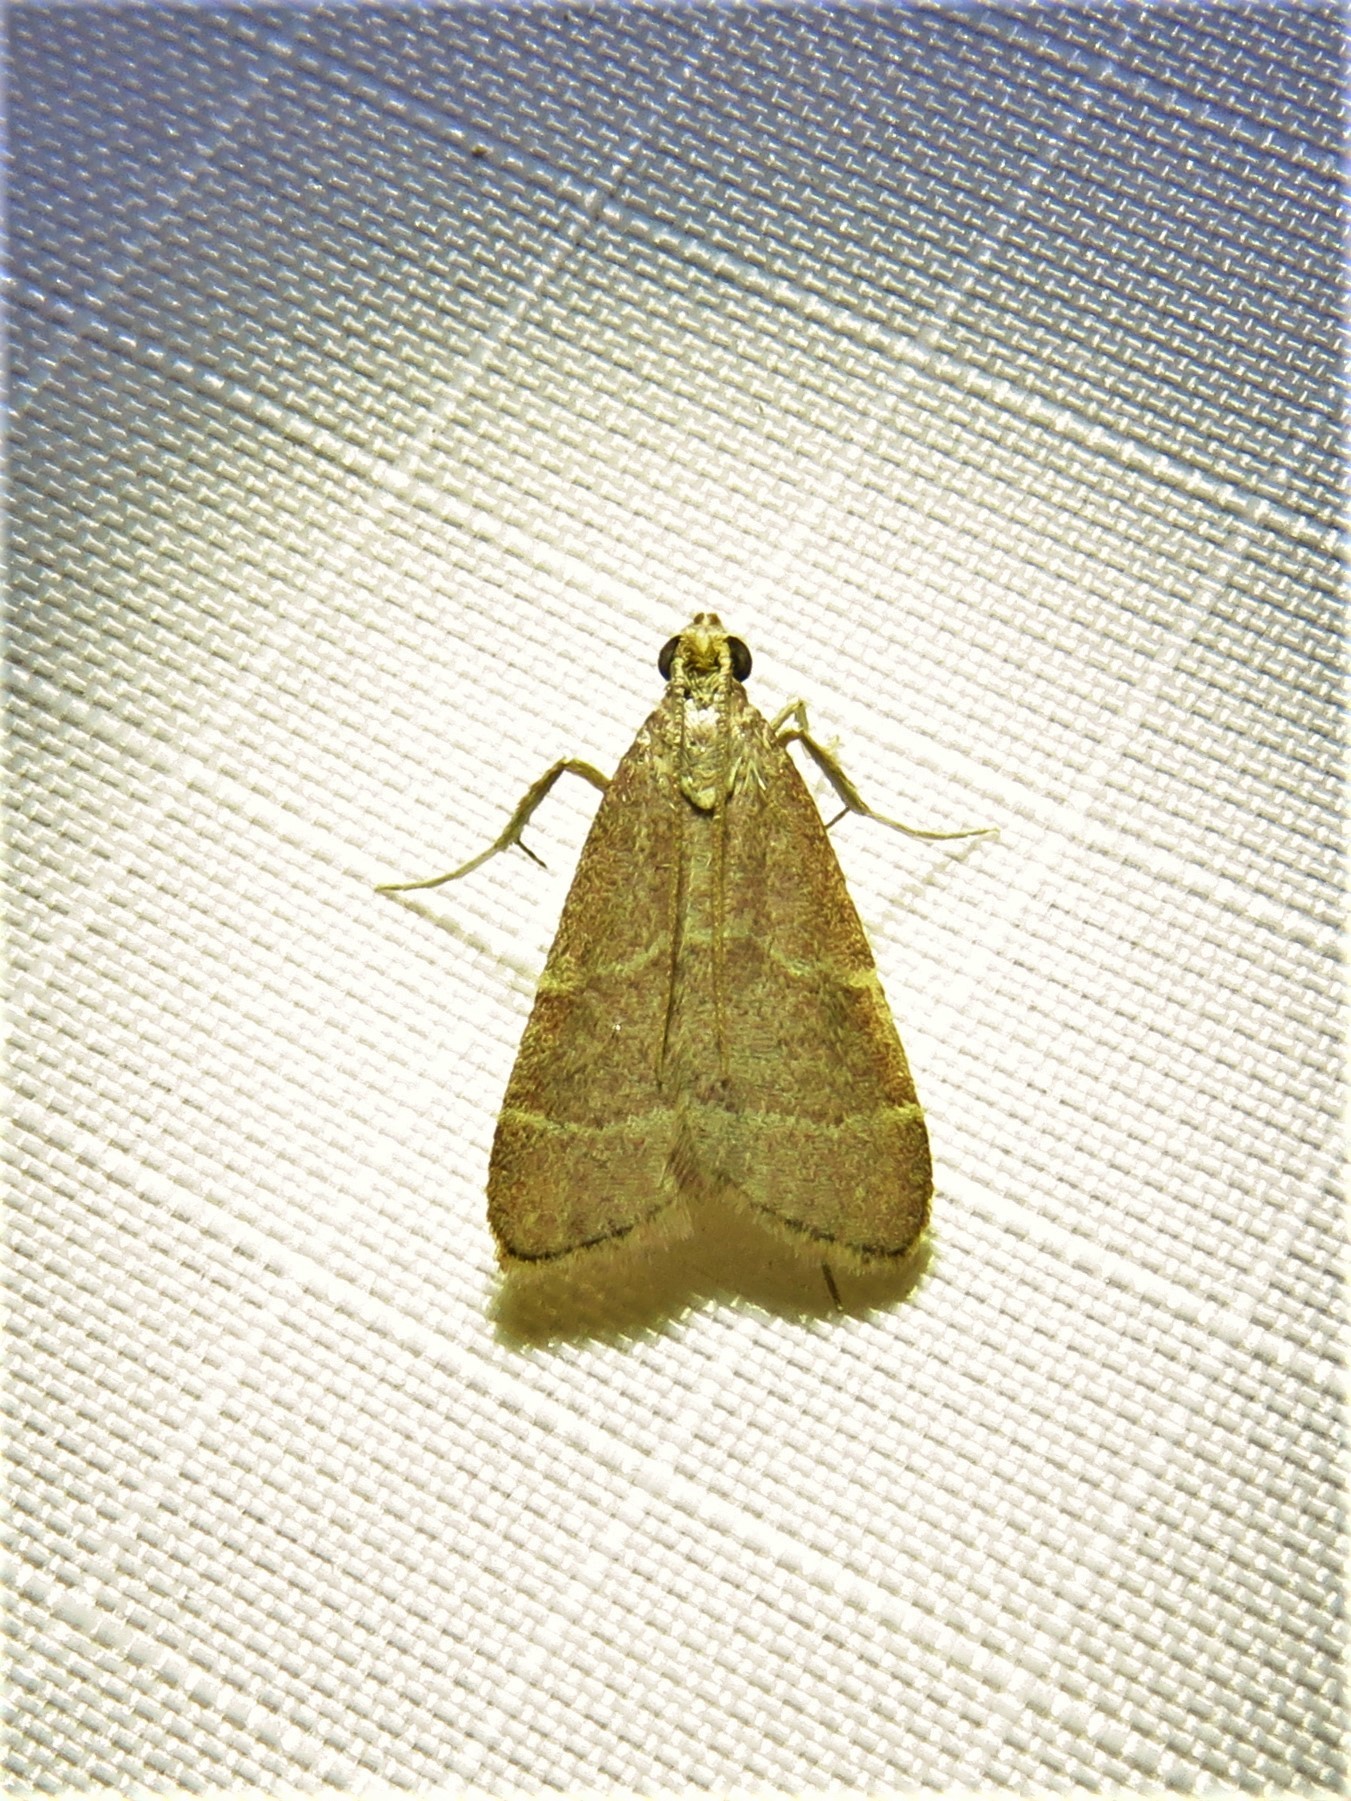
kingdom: Animalia
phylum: Arthropoda
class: Insecta
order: Lepidoptera
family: Pyralidae
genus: Arta
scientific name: Arta epicoenalis
